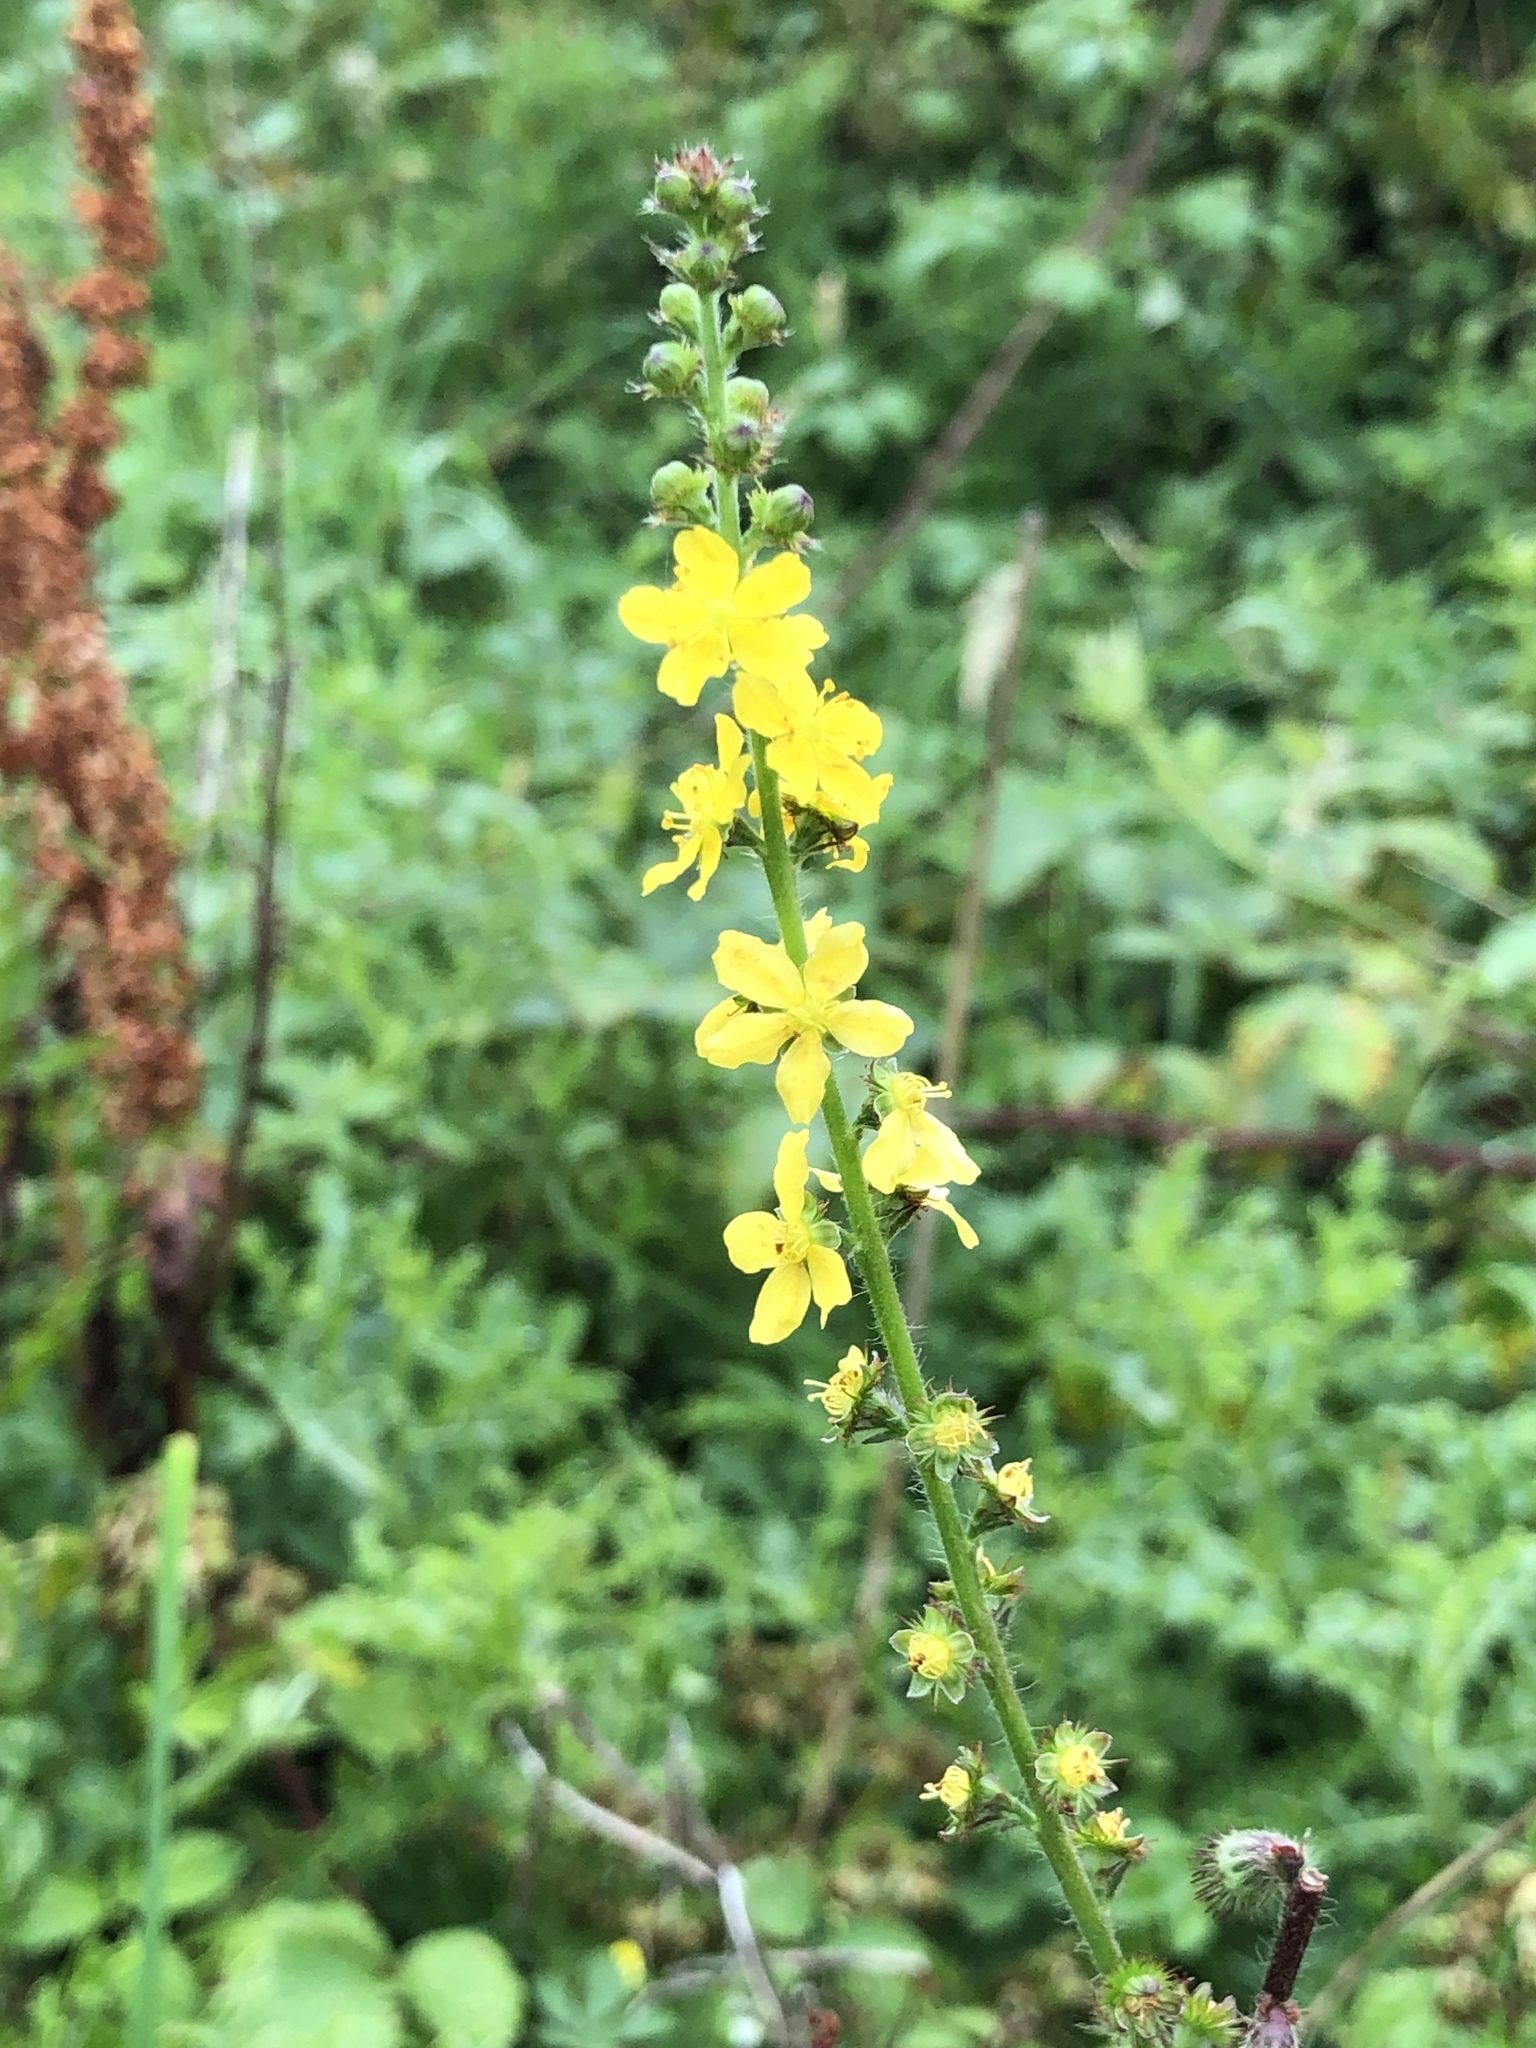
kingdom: Plantae
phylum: Tracheophyta
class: Magnoliopsida
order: Rosales
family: Rosaceae
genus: Agrimonia
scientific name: Agrimonia eupatoria
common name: Agrimony
